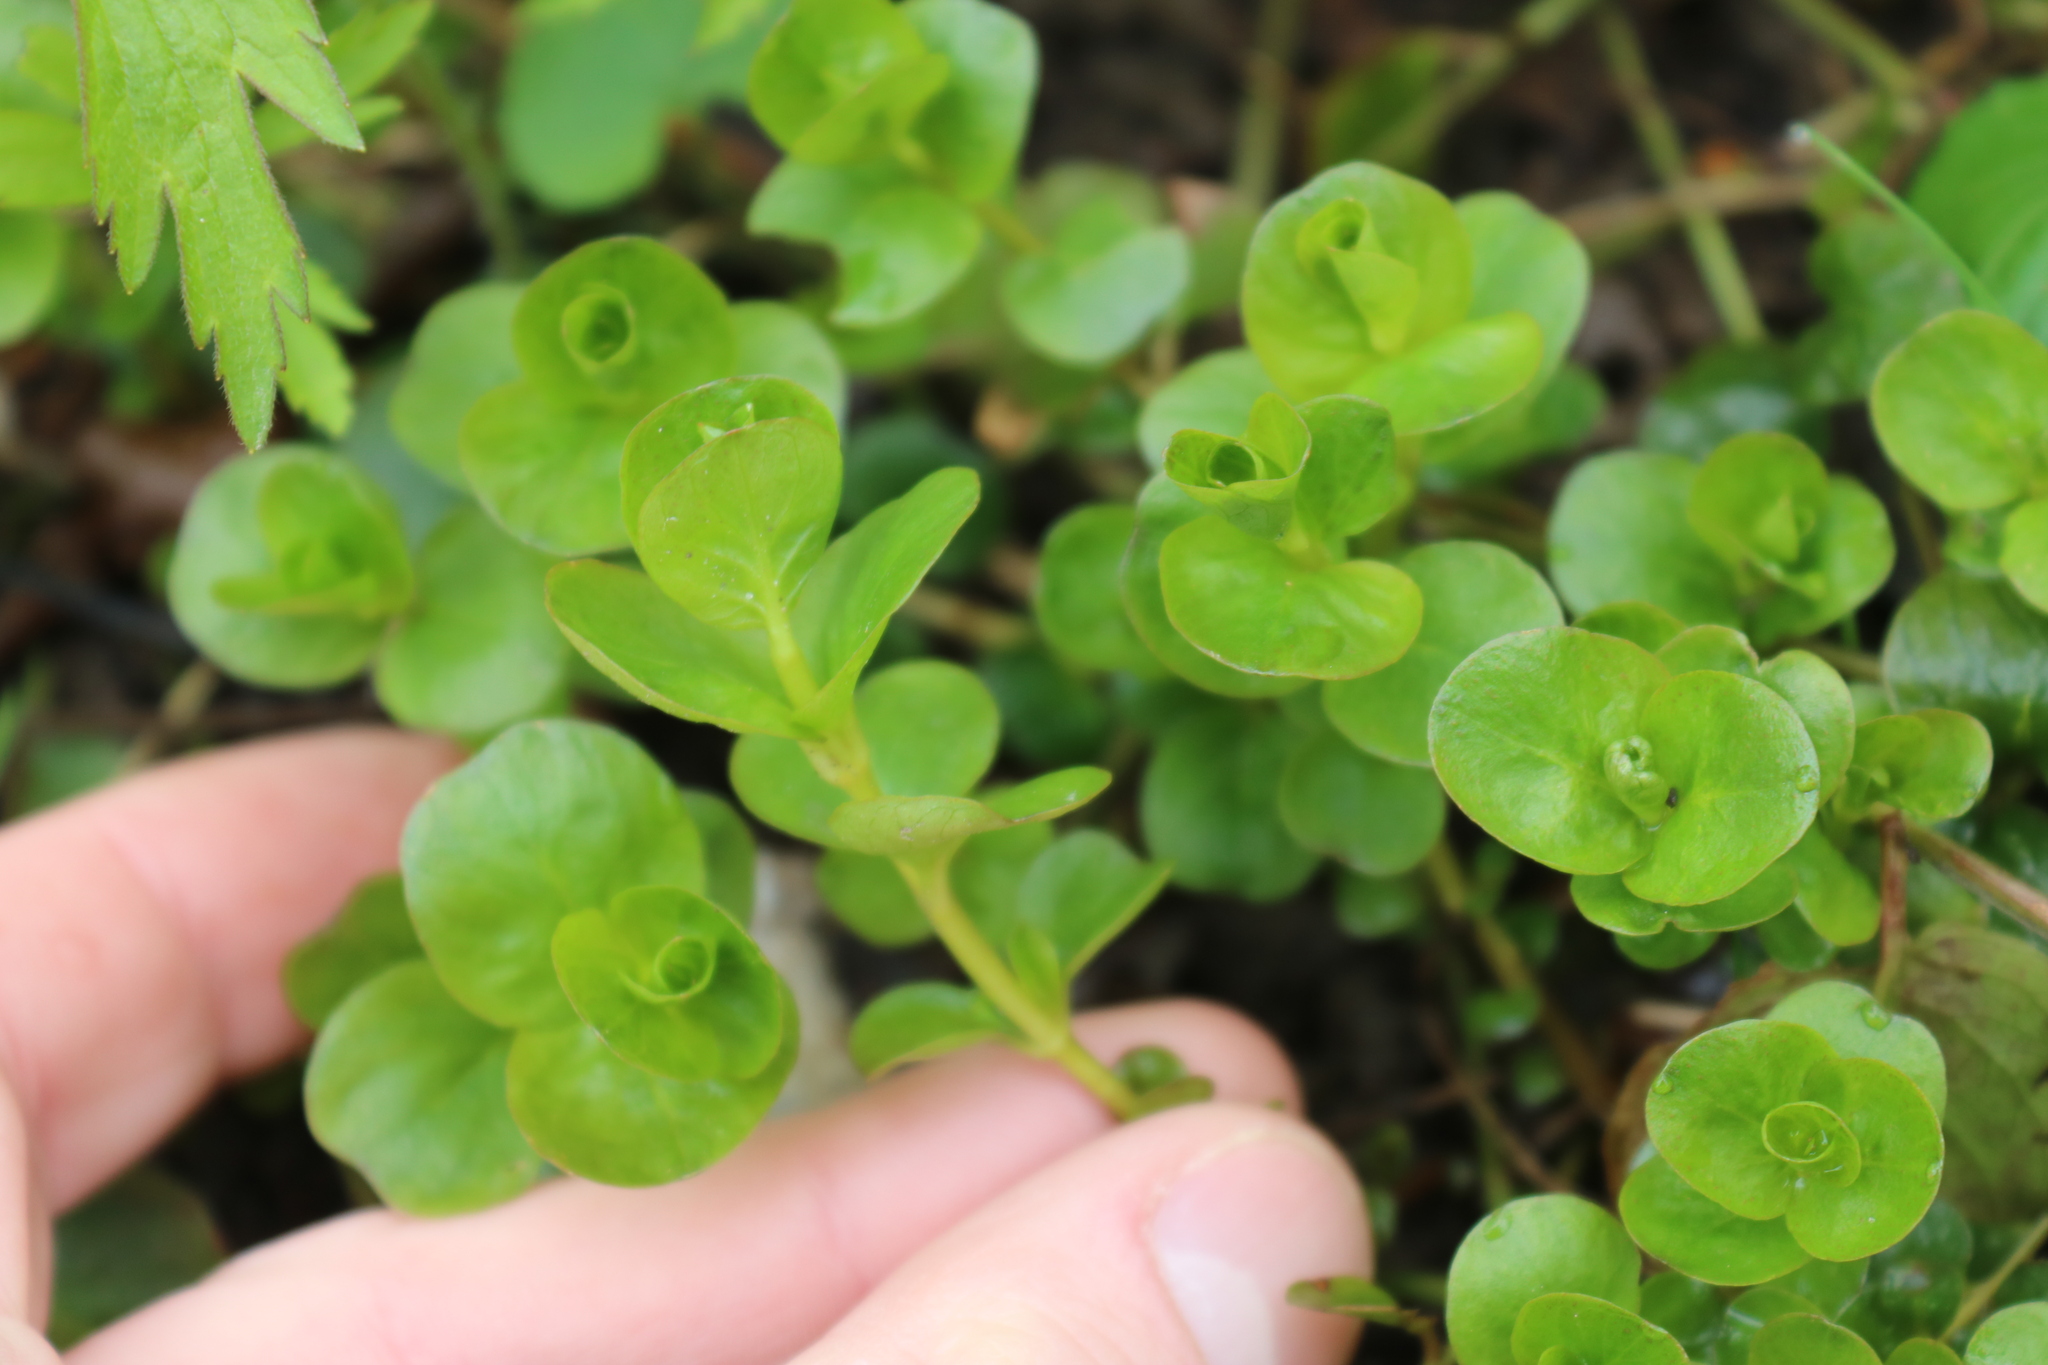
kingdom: Plantae
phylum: Tracheophyta
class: Magnoliopsida
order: Ericales
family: Primulaceae
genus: Lysimachia
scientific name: Lysimachia nummularia
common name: Moneywort
